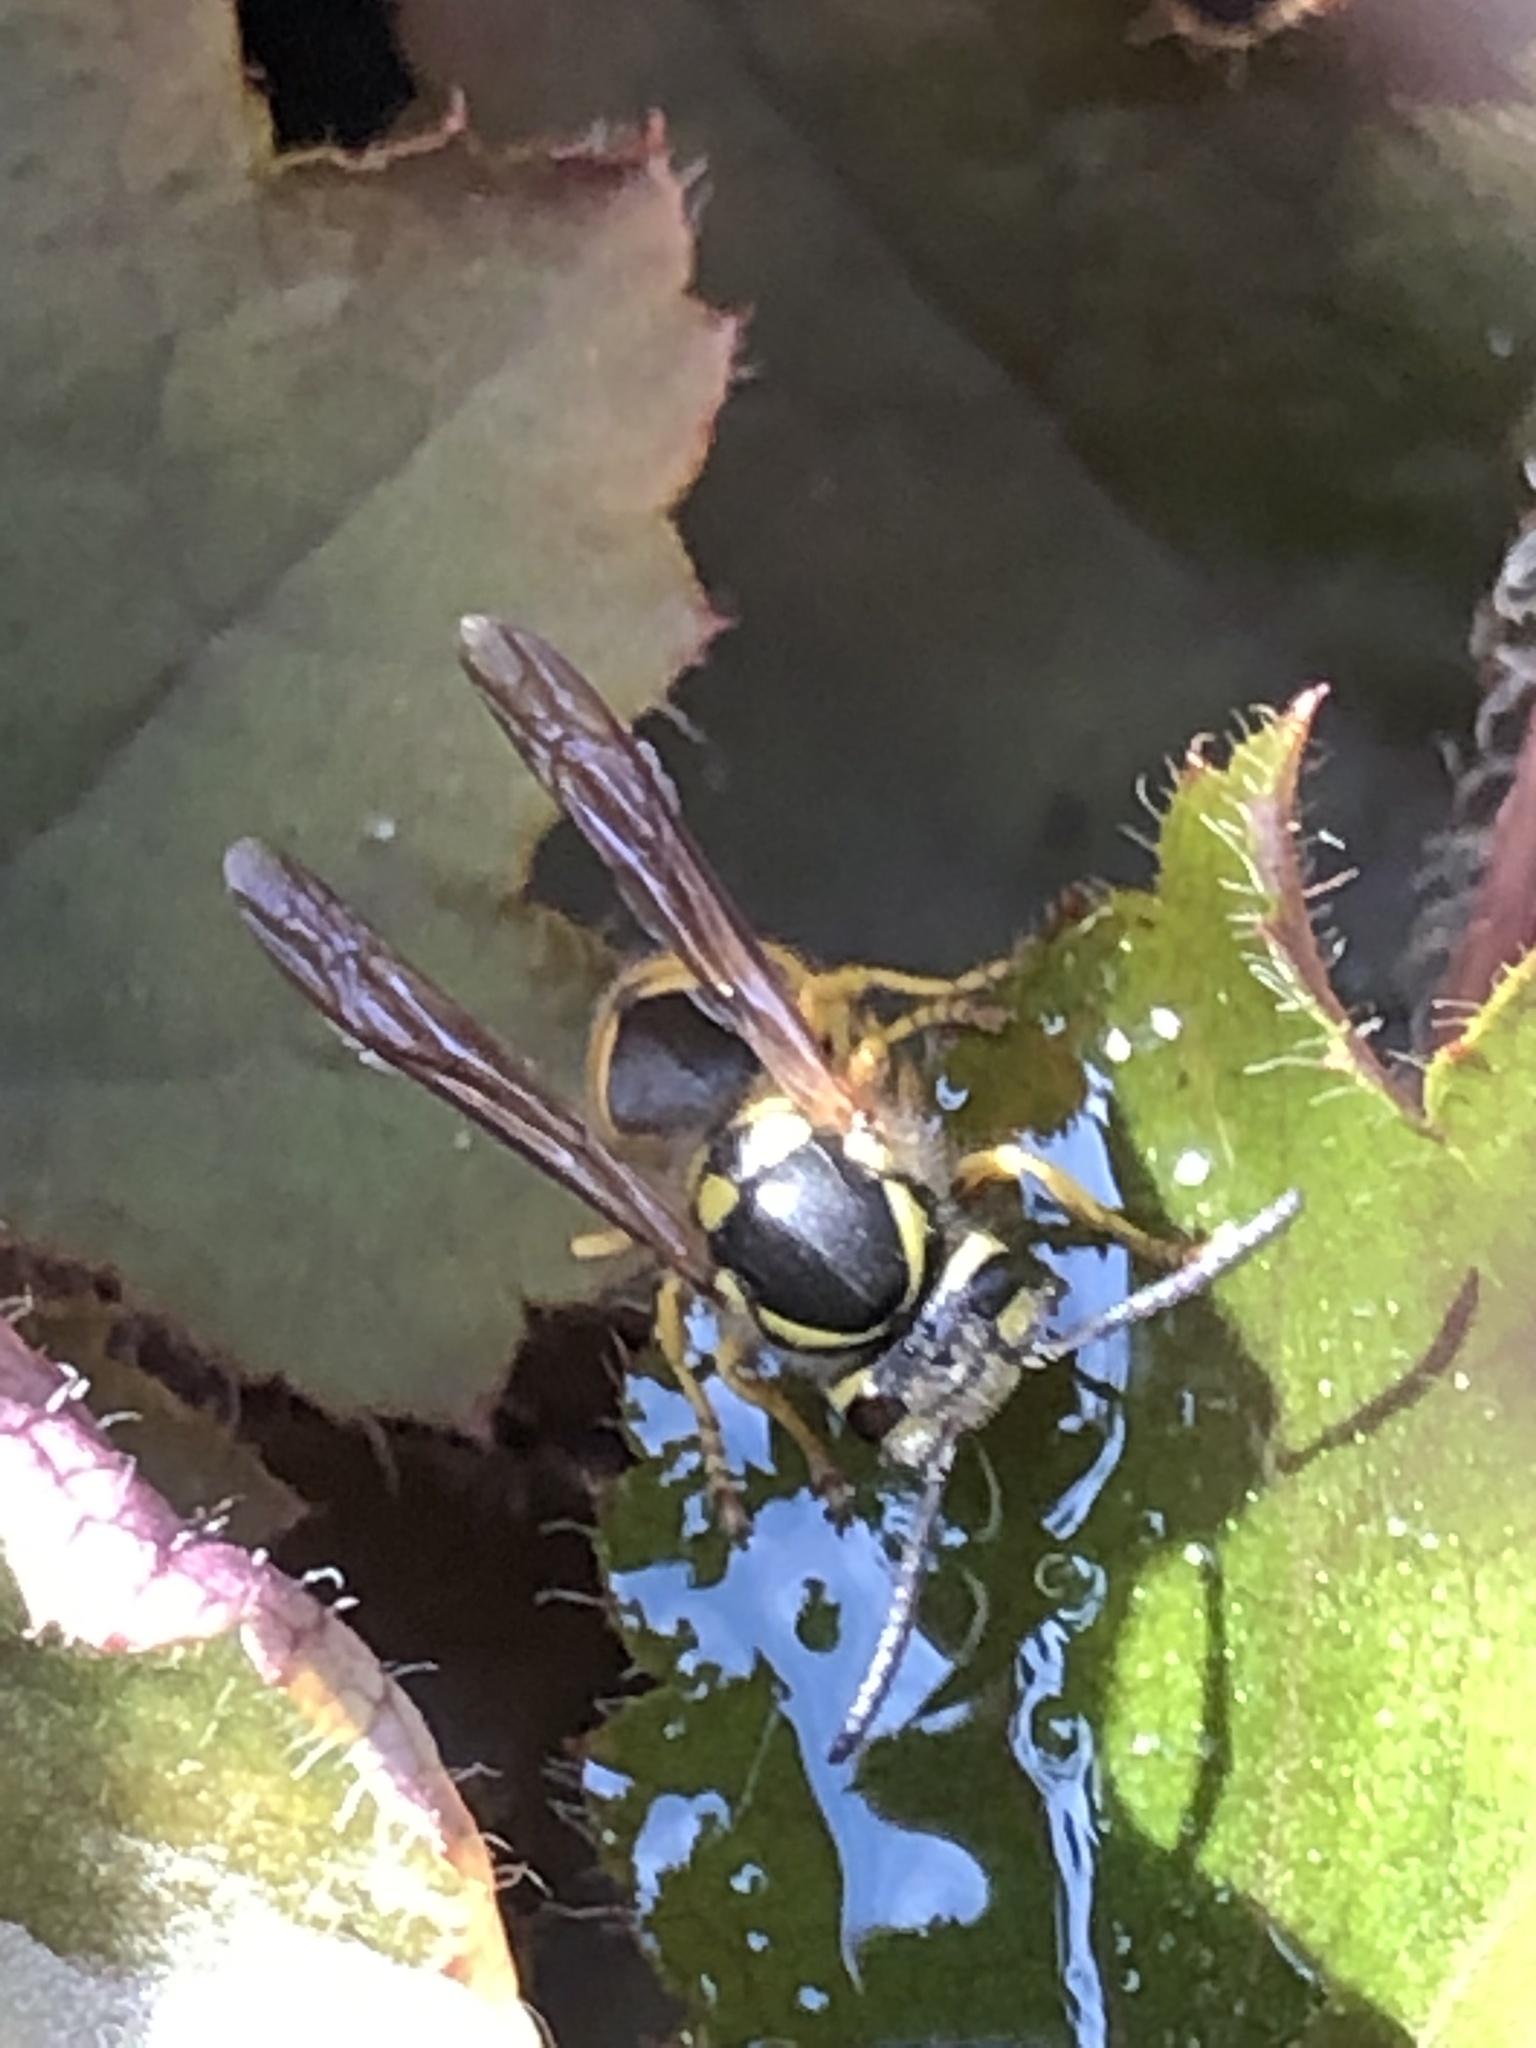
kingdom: Animalia
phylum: Arthropoda
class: Insecta
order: Hymenoptera
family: Vespidae
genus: Vespula
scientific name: Vespula germanica
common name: German wasp
